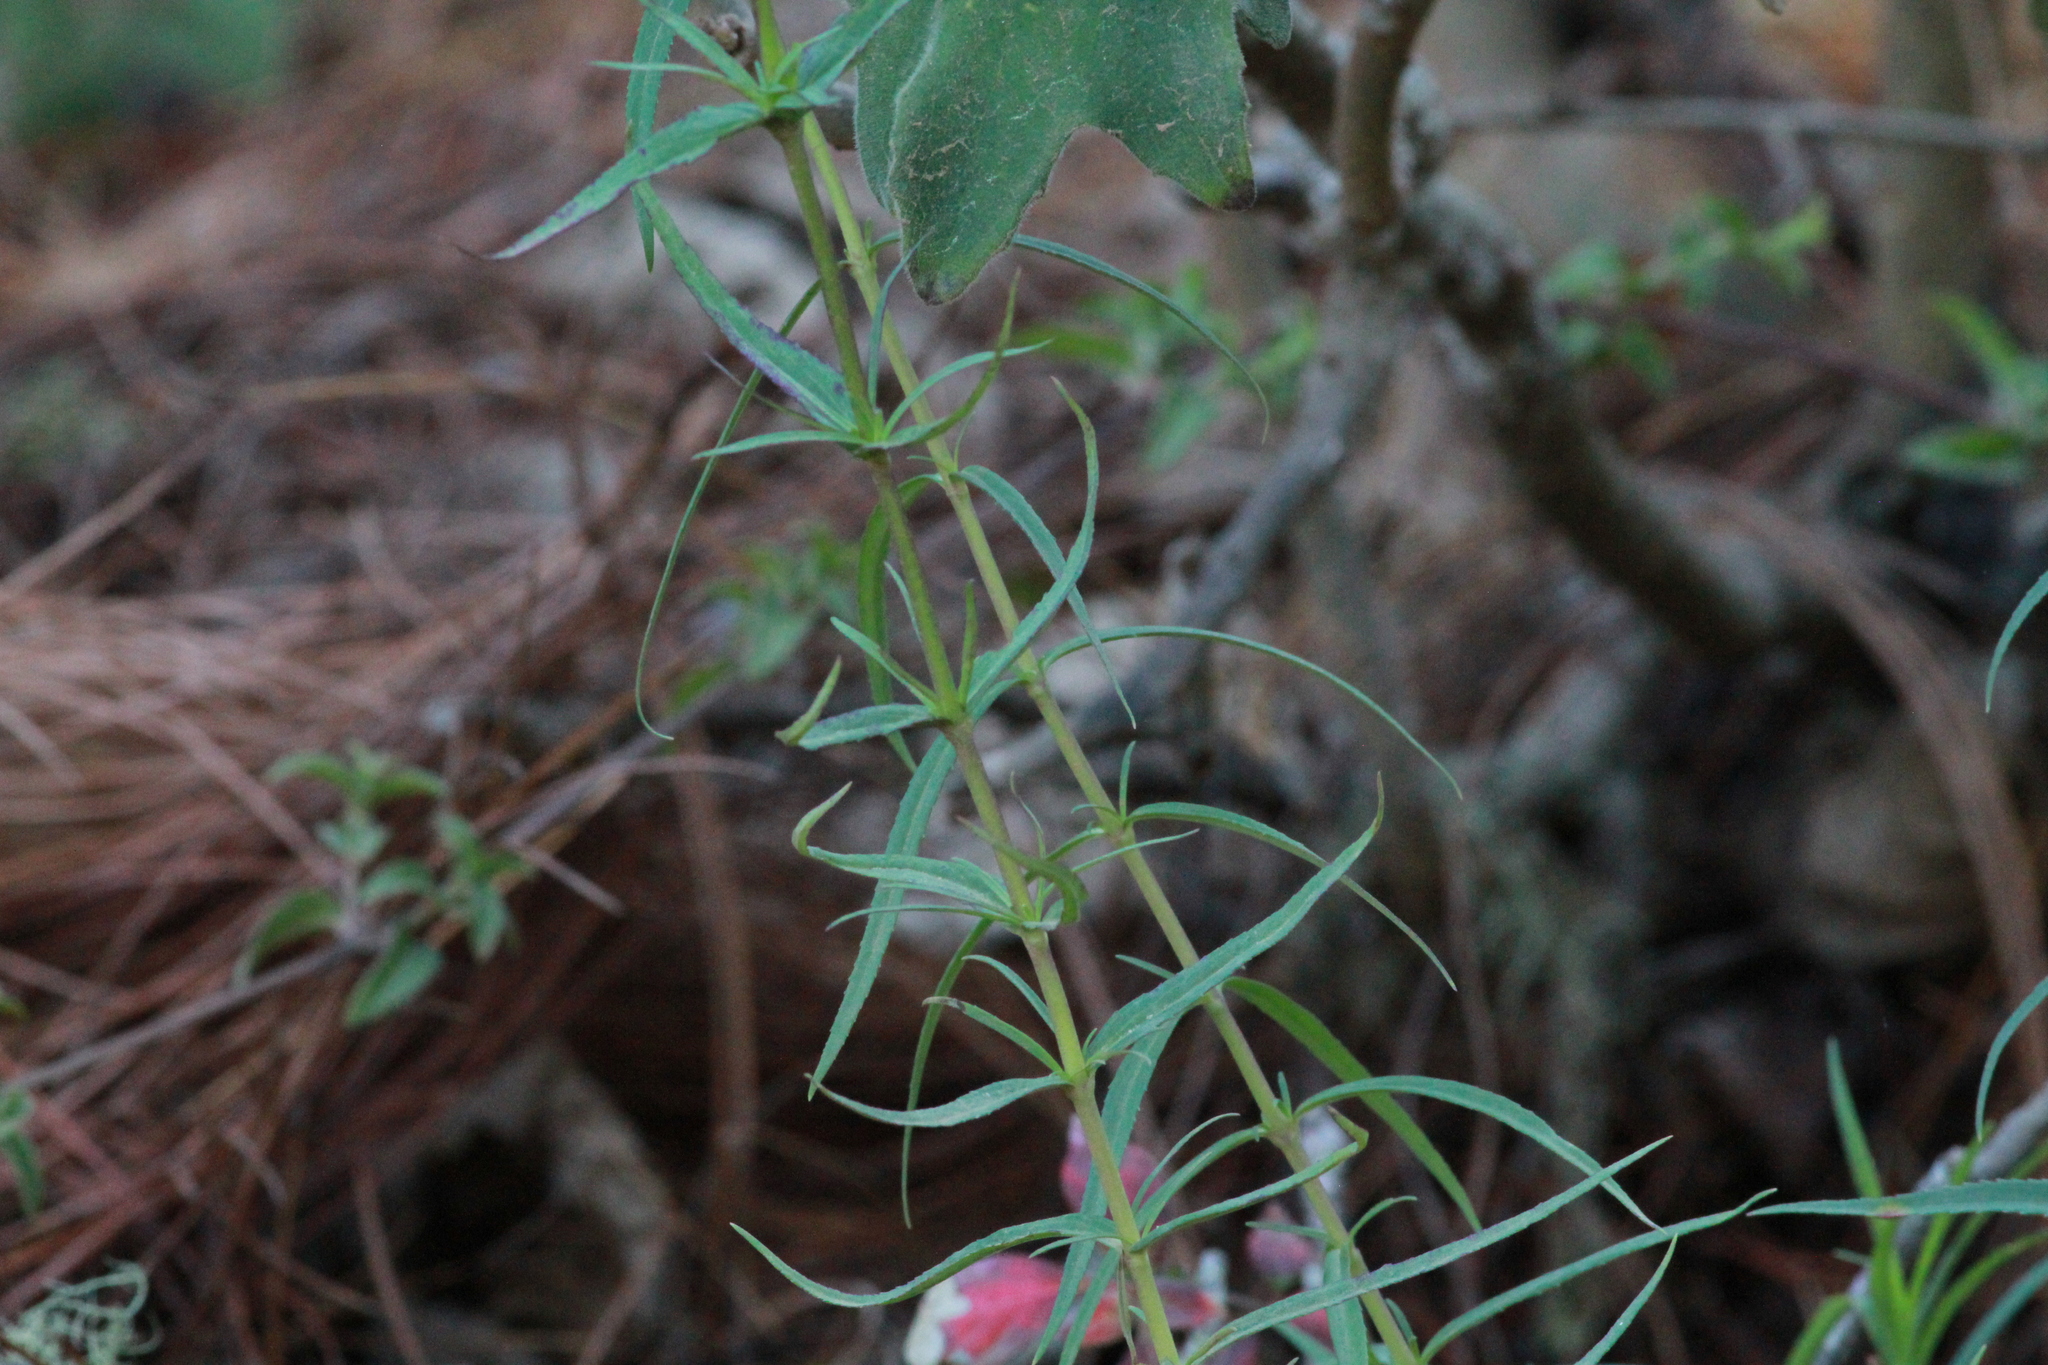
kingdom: Plantae
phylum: Tracheophyta
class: Magnoliopsida
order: Lamiales
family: Plantaginaceae
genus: Penstemon
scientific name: Penstemon roseus
